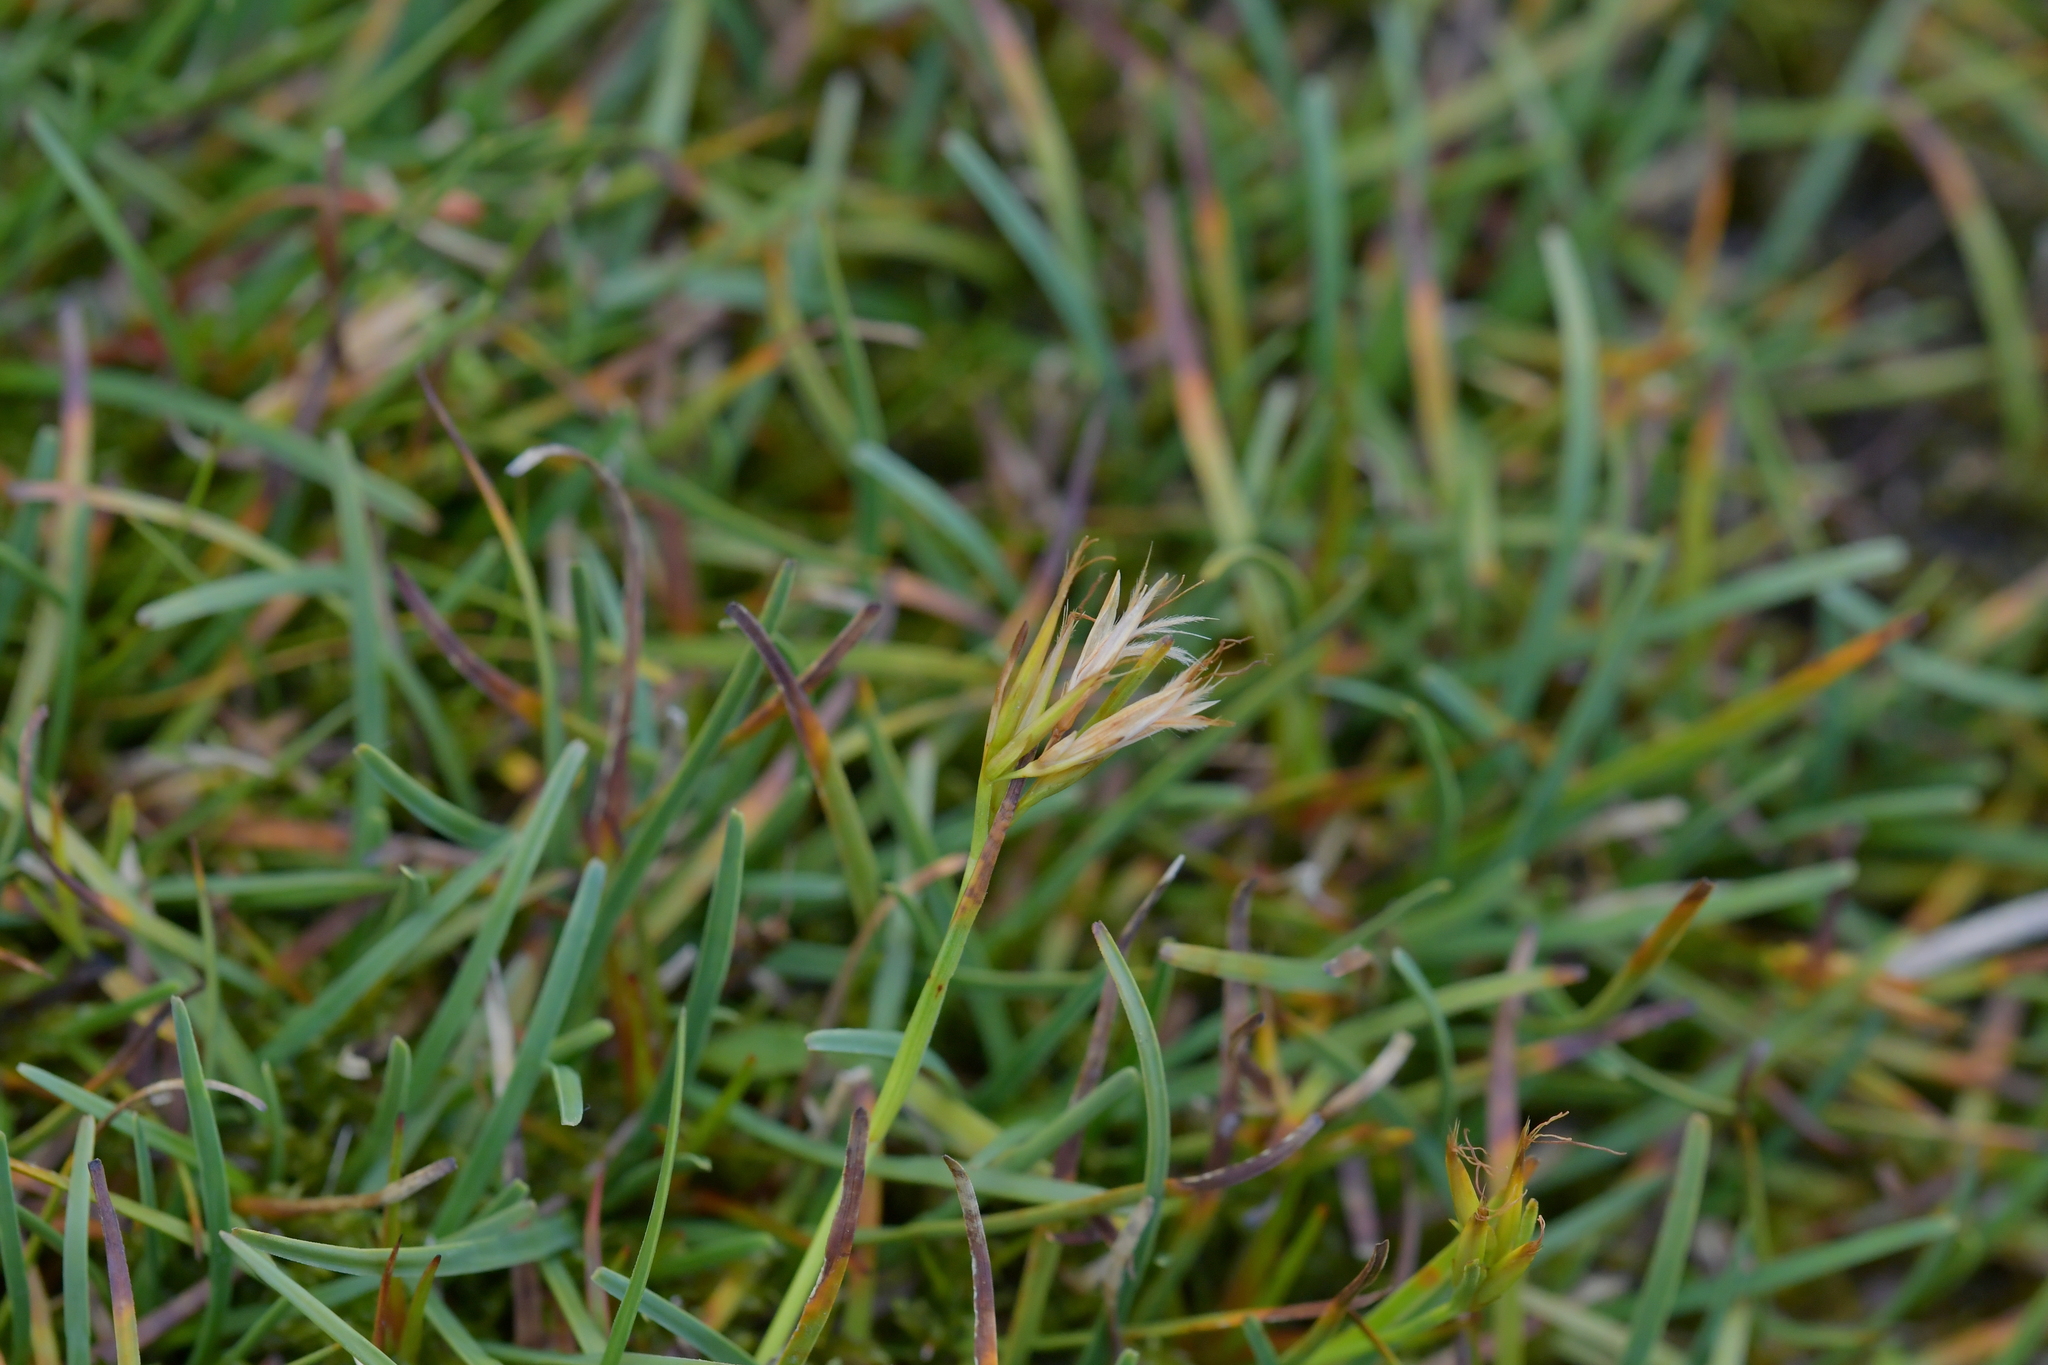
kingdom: Plantae
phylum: Tracheophyta
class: Liliopsida
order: Poales
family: Cyperaceae
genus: Carpha
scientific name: Carpha alpina
